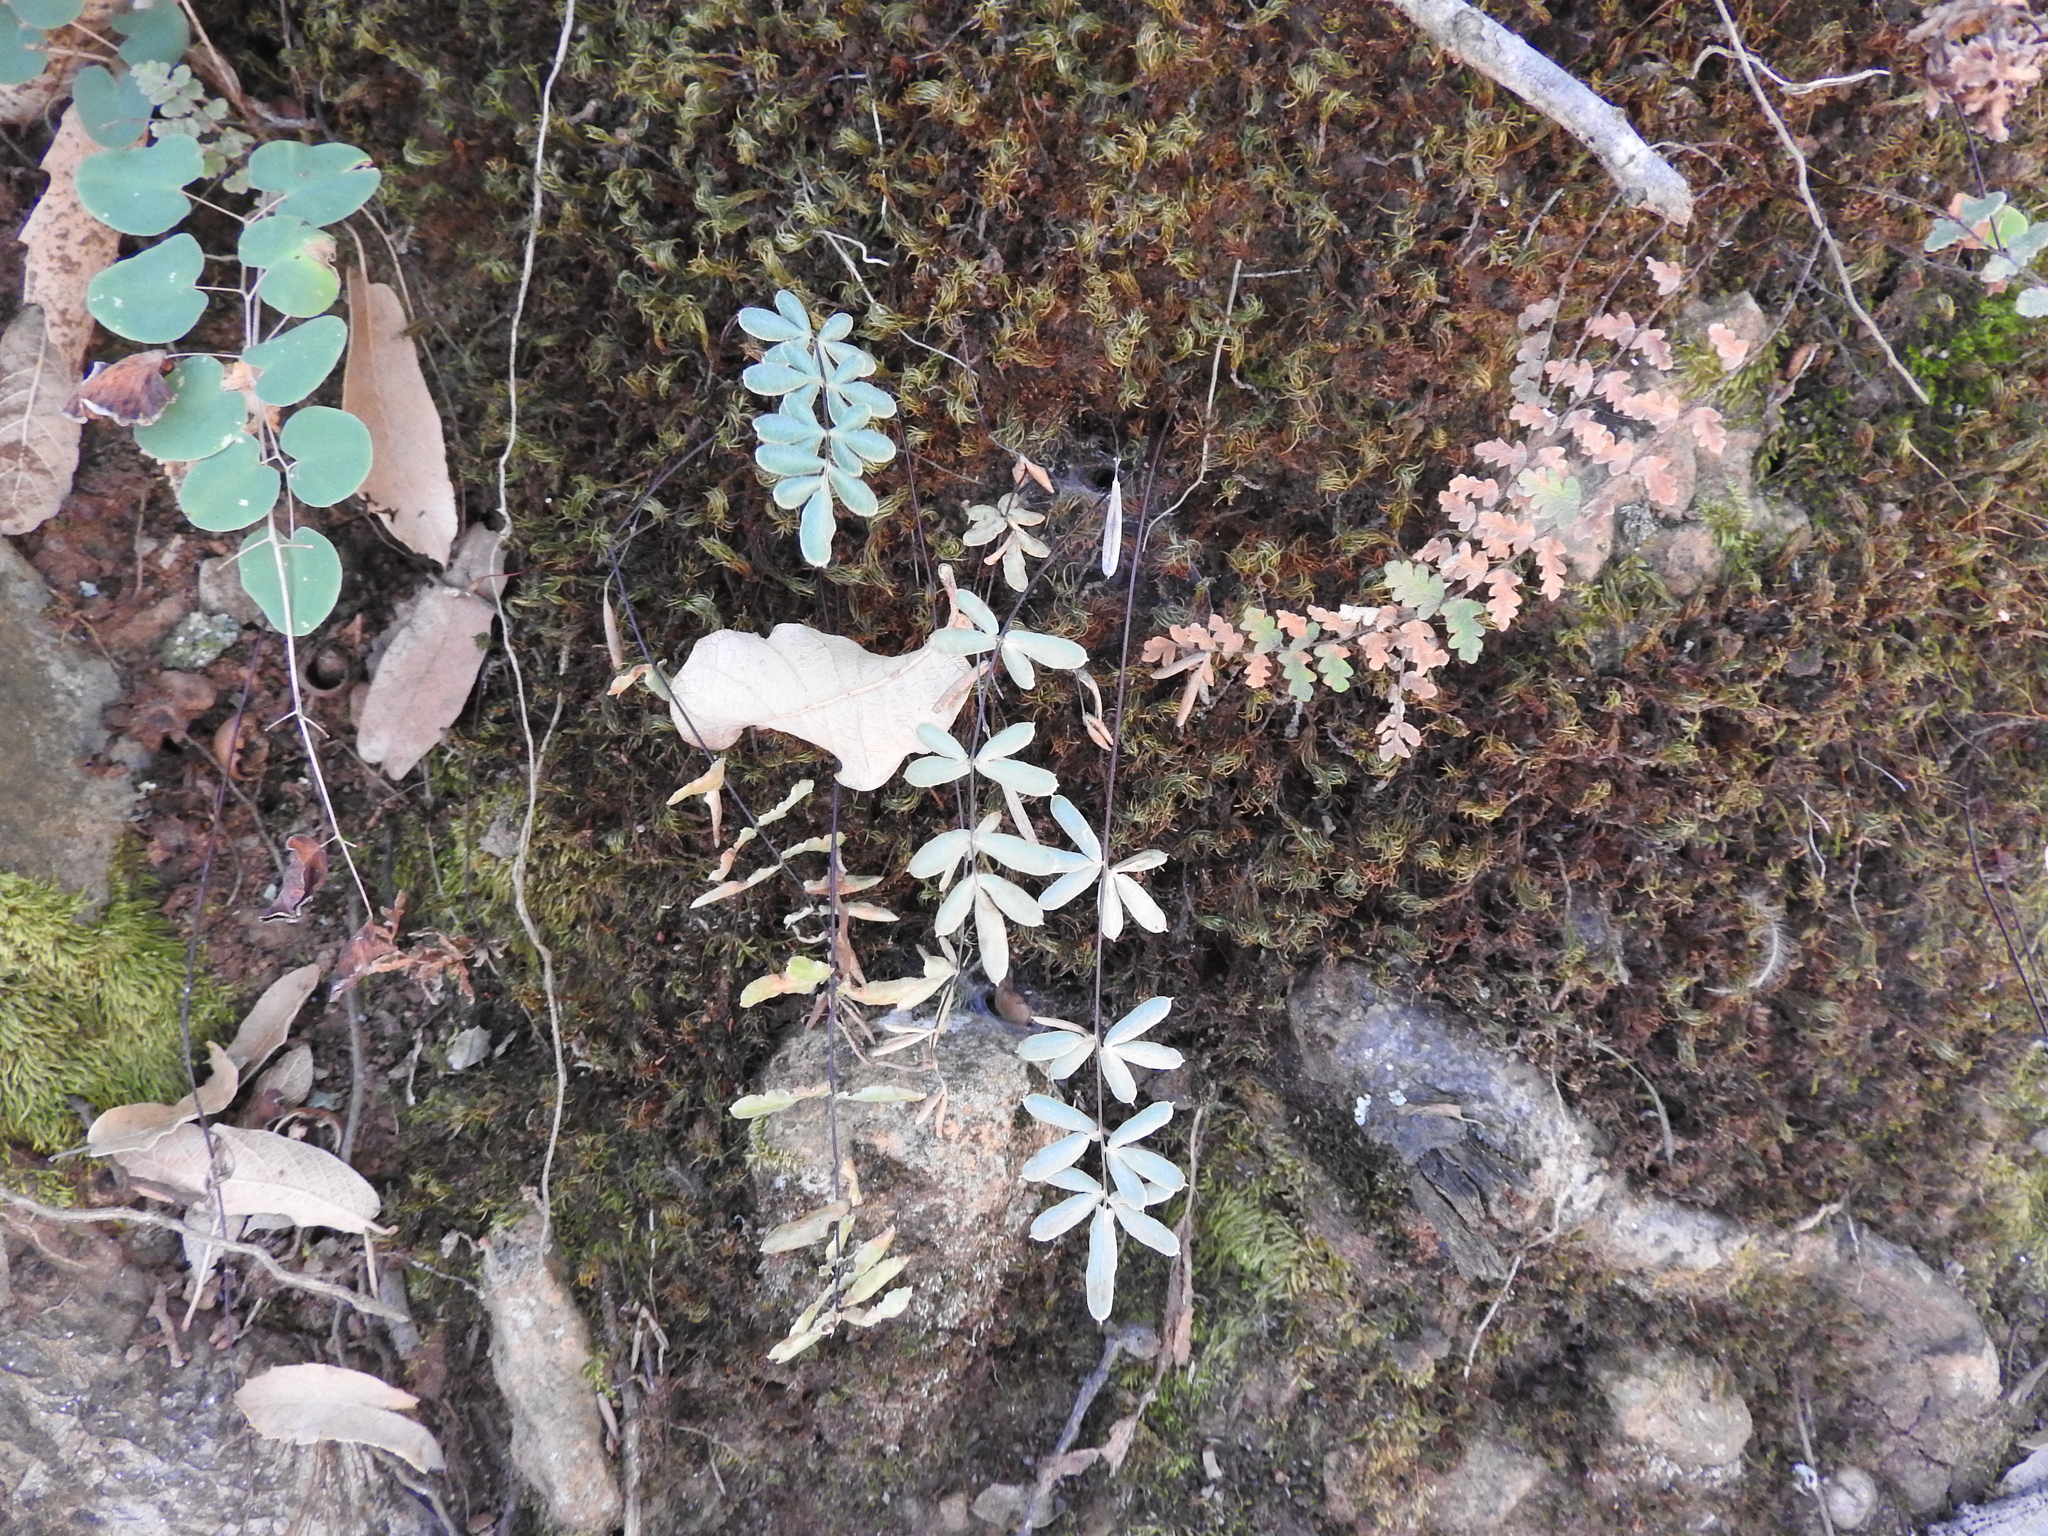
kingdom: Plantae
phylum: Tracheophyta
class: Polypodiopsida
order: Polypodiales
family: Pteridaceae
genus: Pellaea
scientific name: Pellaea ternifolia
